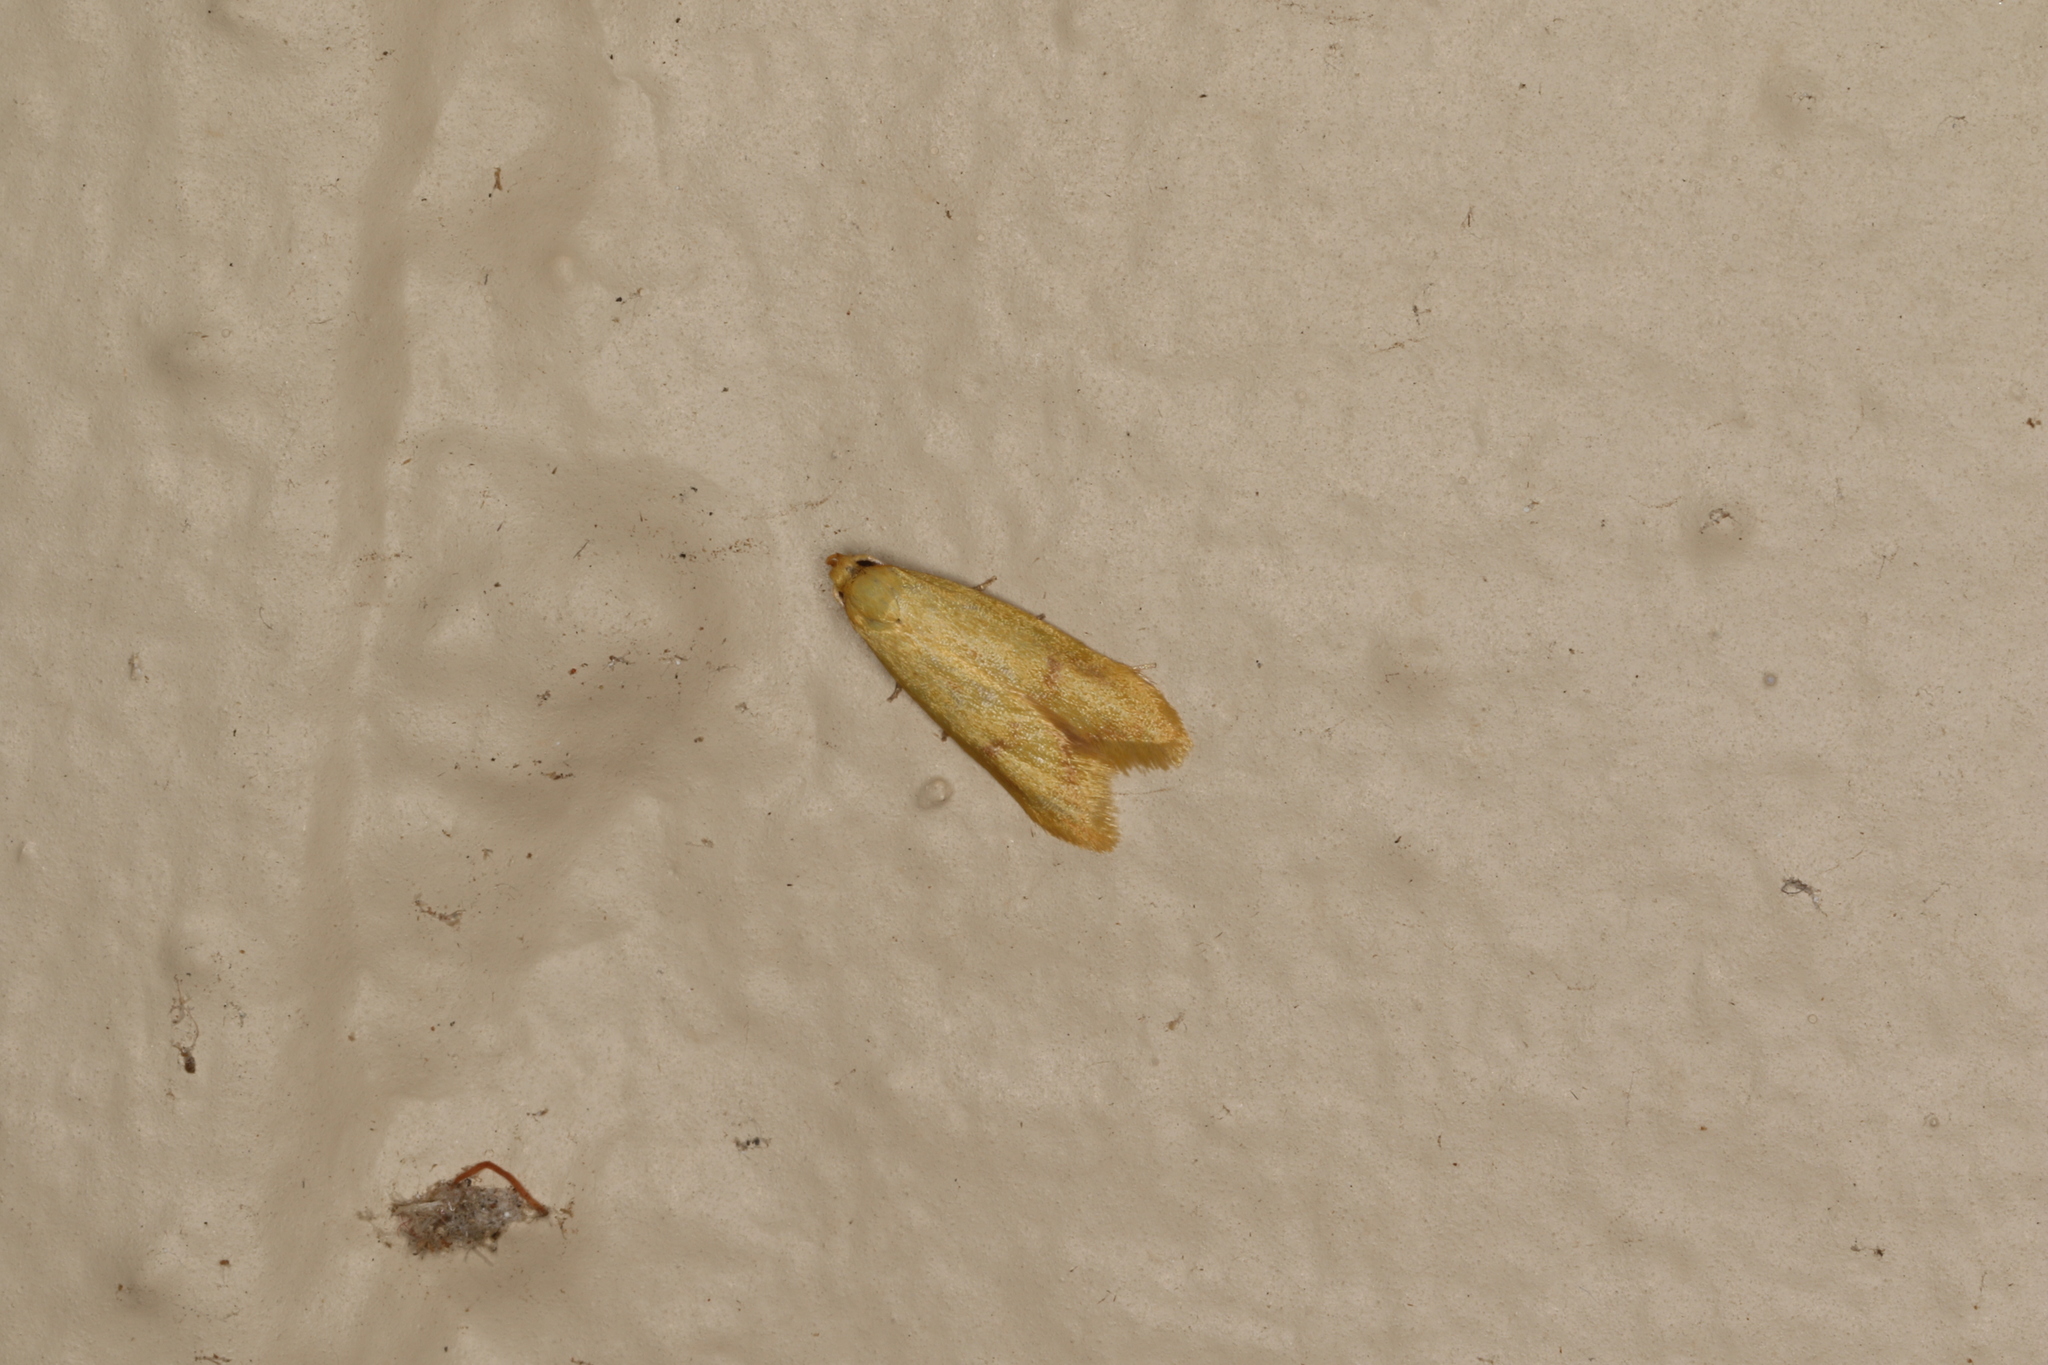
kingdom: Animalia
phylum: Arthropoda
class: Insecta
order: Lepidoptera
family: Oecophoridae
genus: Aeolothapsa
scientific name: Aeolothapsa malacella
